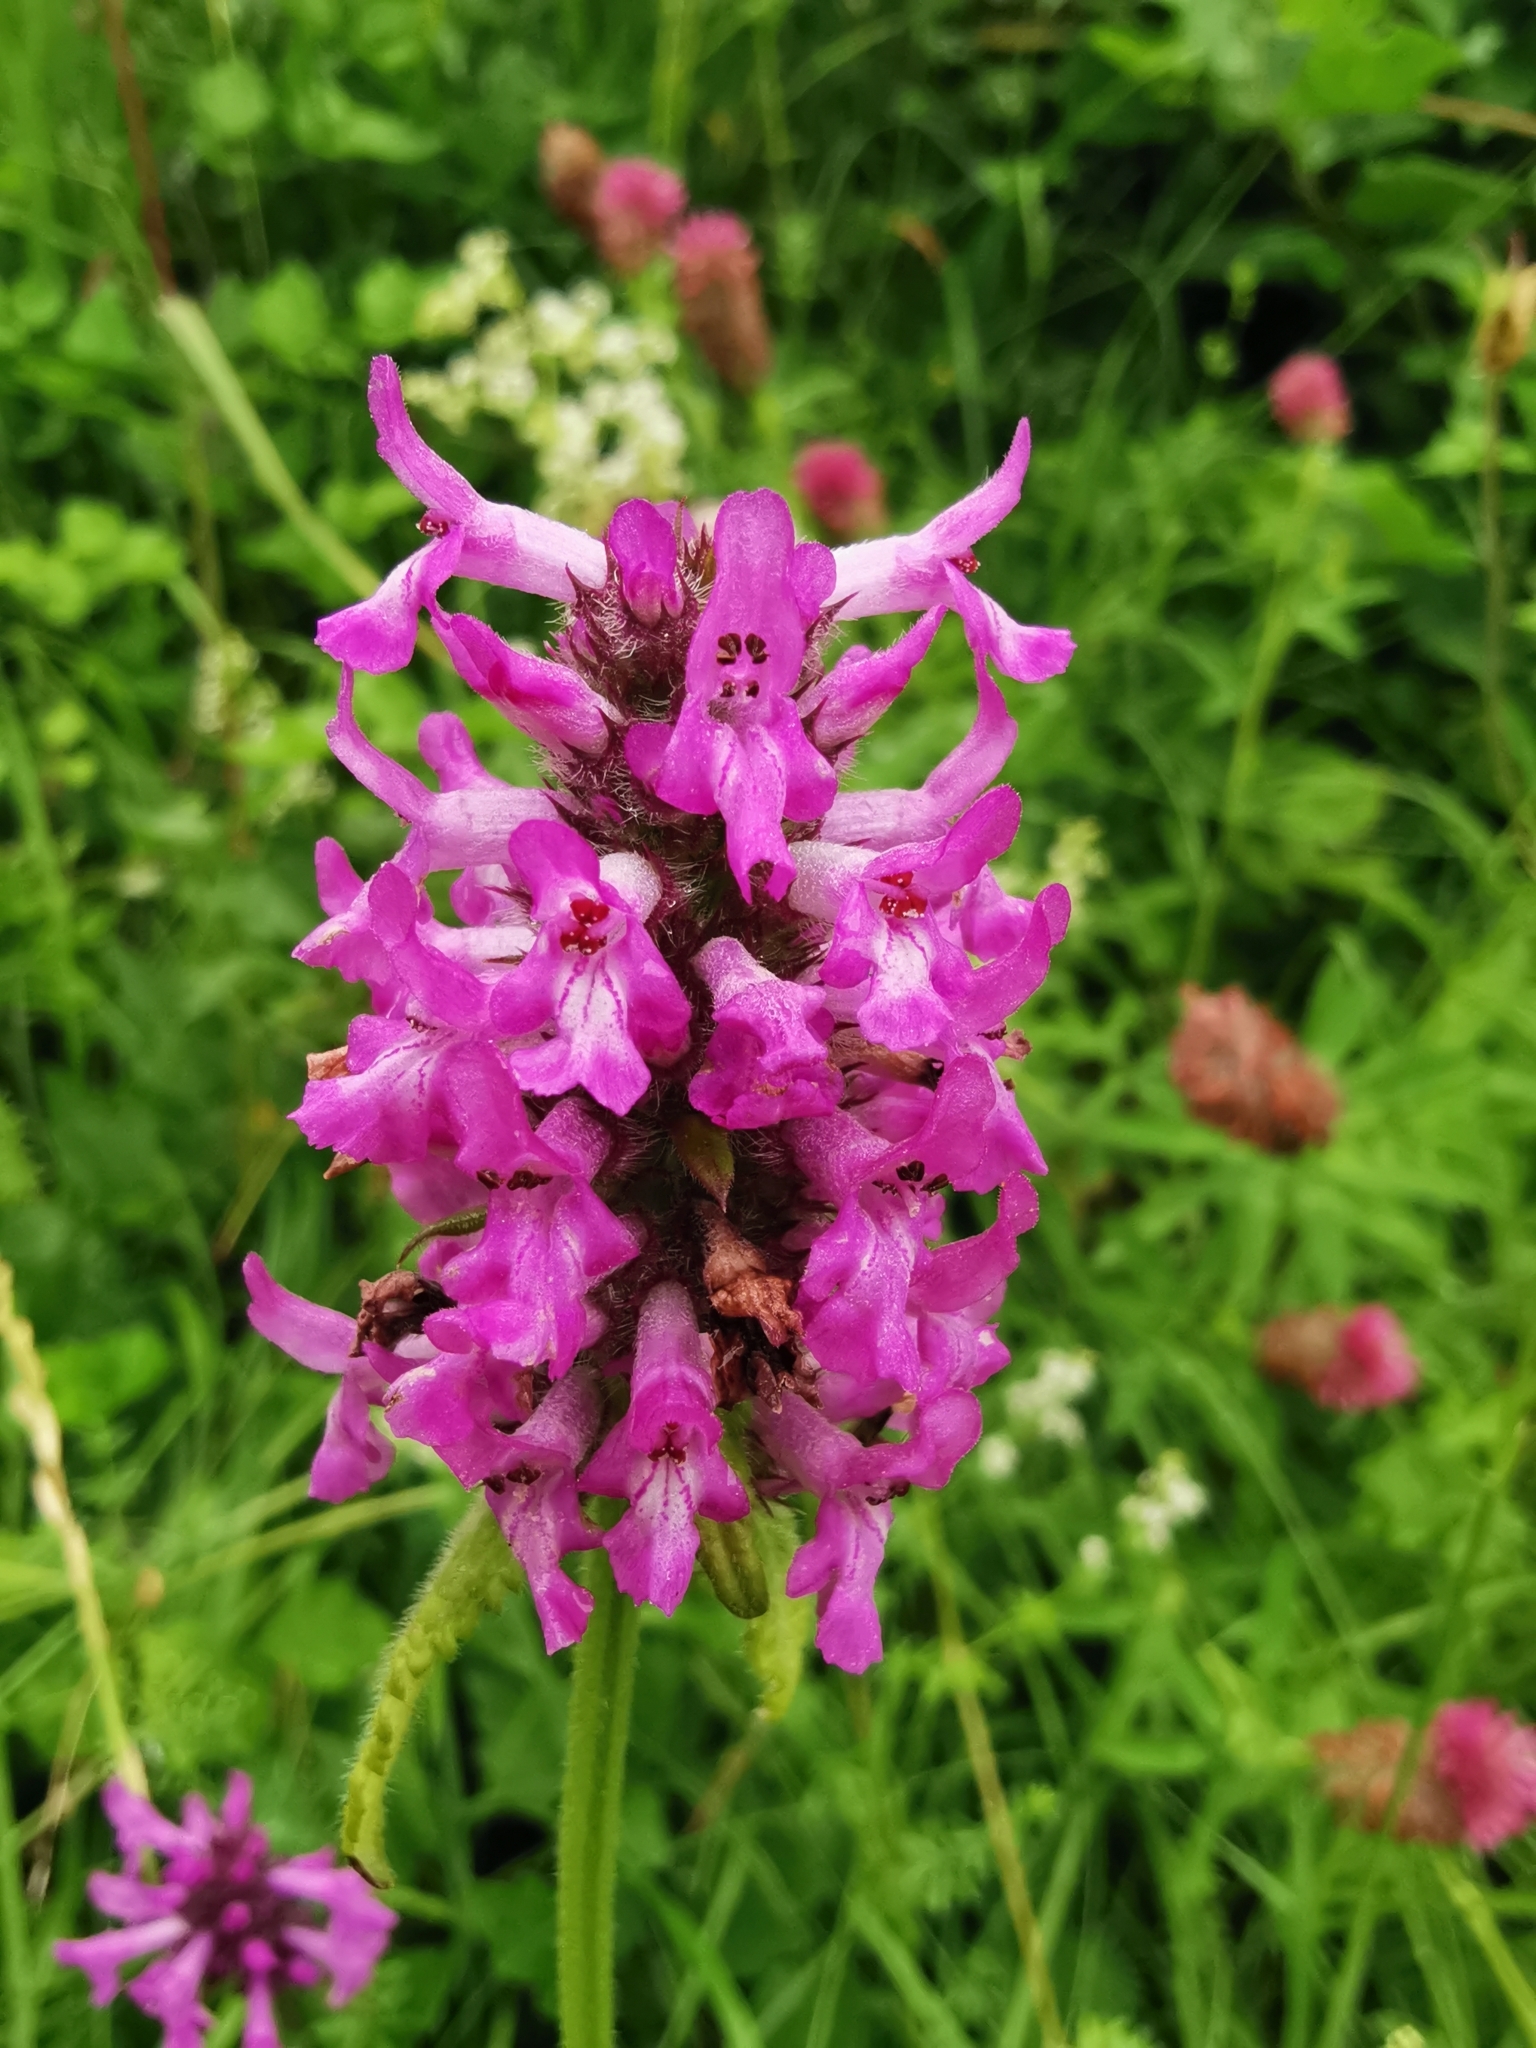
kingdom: Plantae
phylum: Tracheophyta
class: Magnoliopsida
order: Lamiales
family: Lamiaceae
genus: Betonica
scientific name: Betonica officinalis
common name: Bishop's-wort
